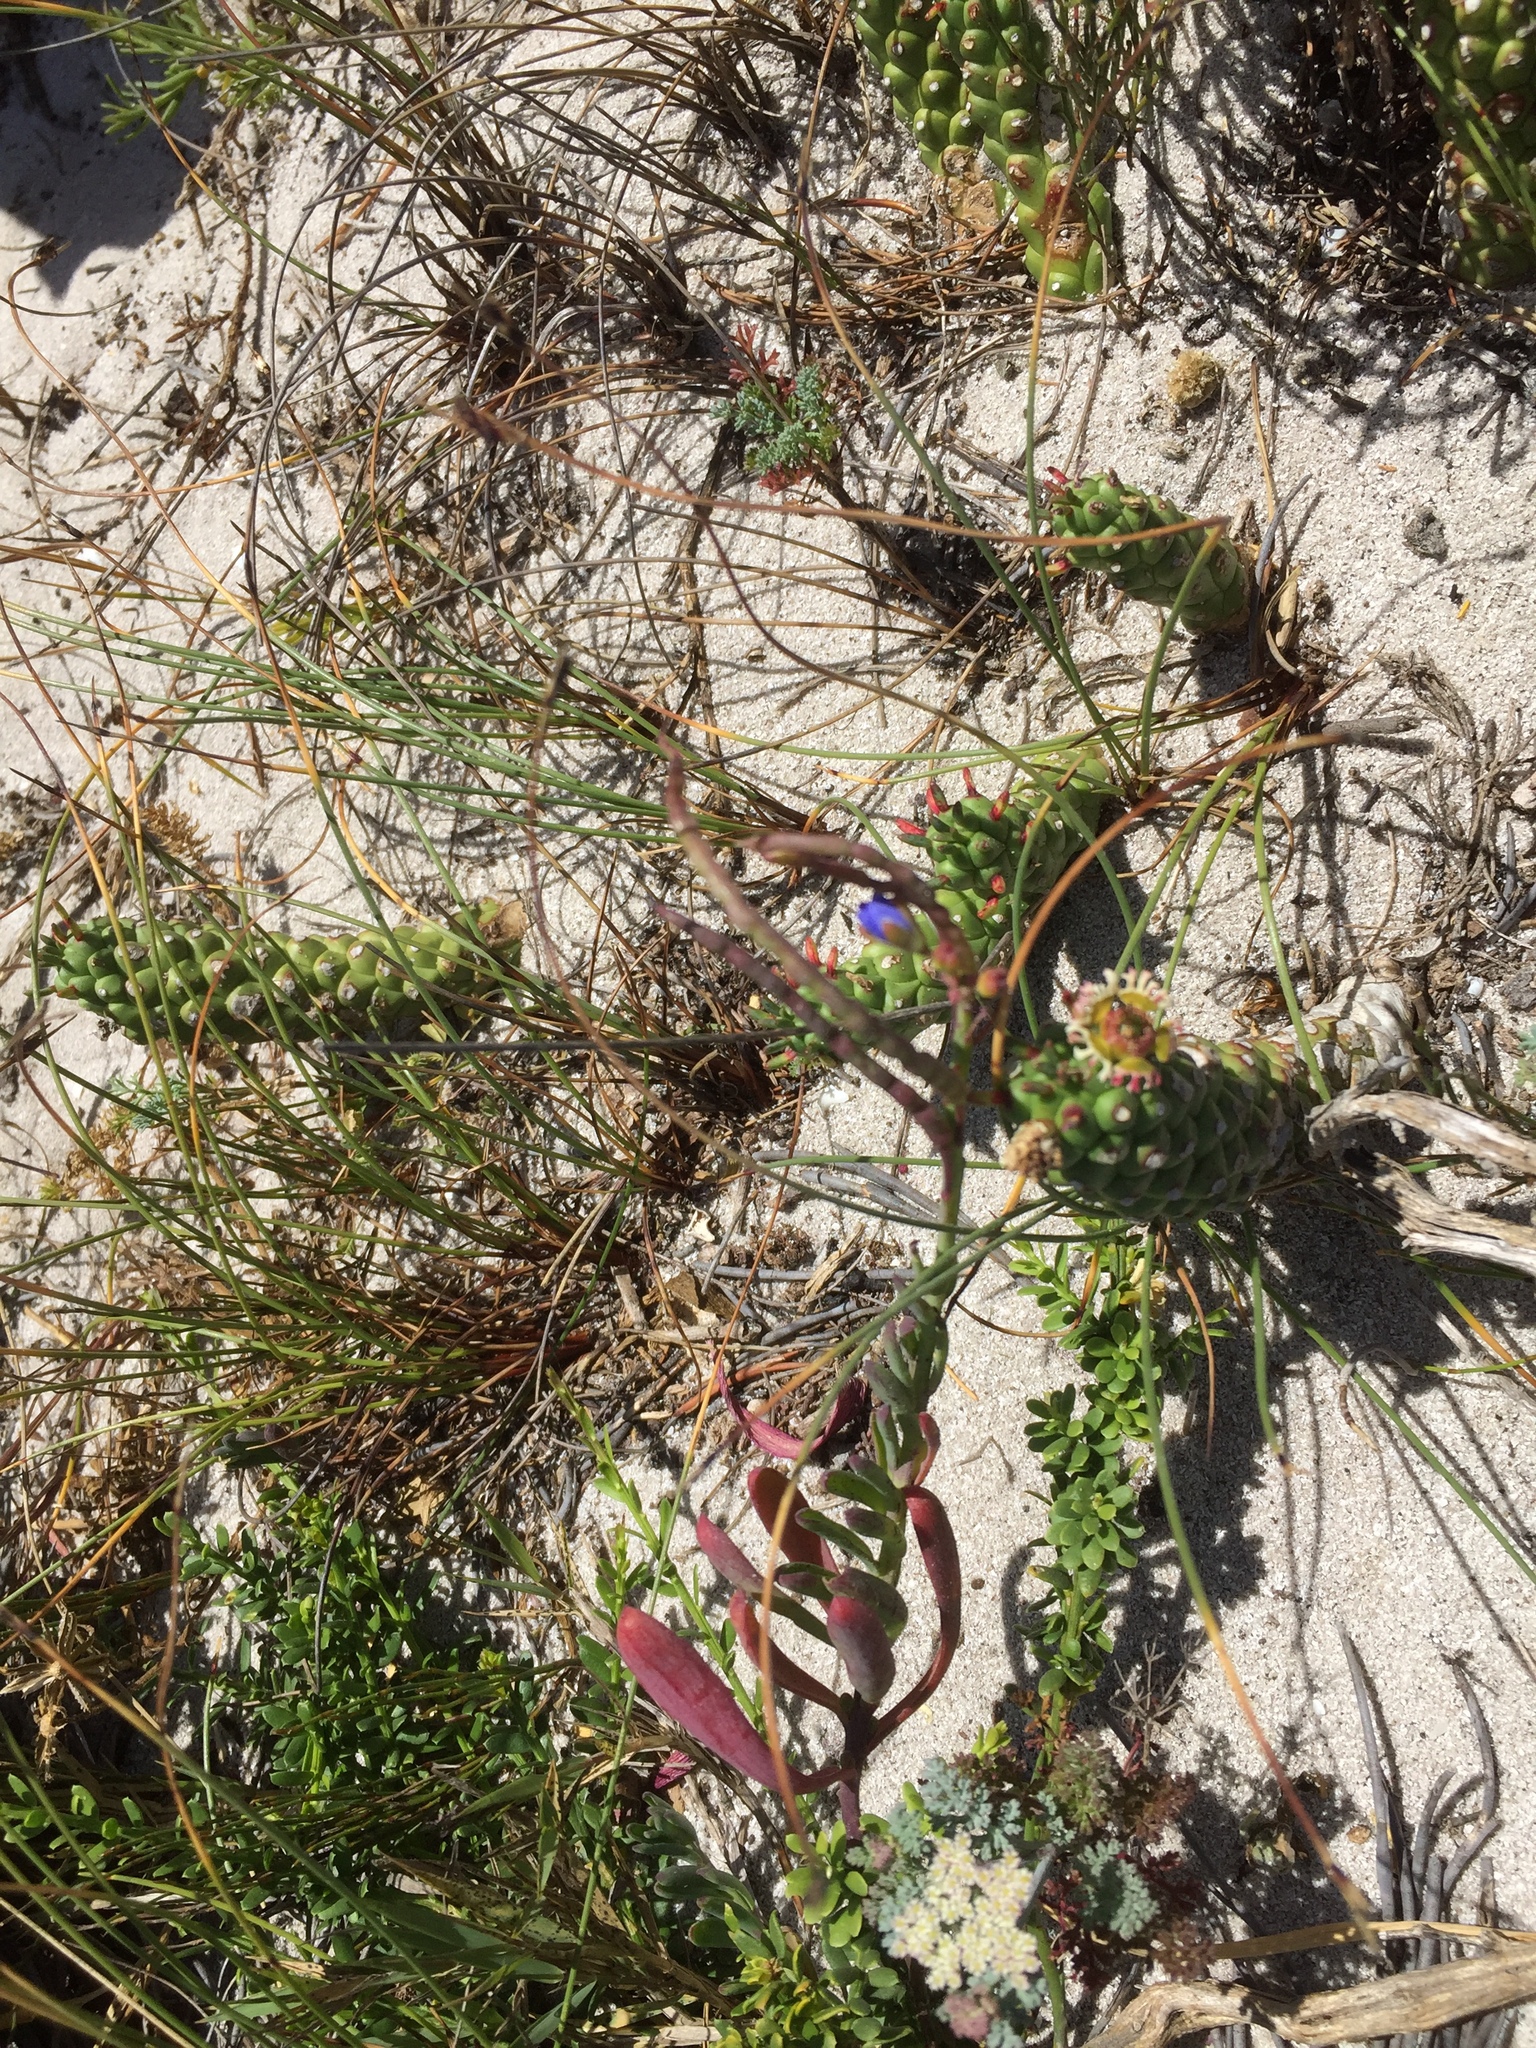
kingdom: Plantae
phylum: Tracheophyta
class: Magnoliopsida
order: Brassicales
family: Brassicaceae
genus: Heliophila
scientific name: Heliophila linearis
